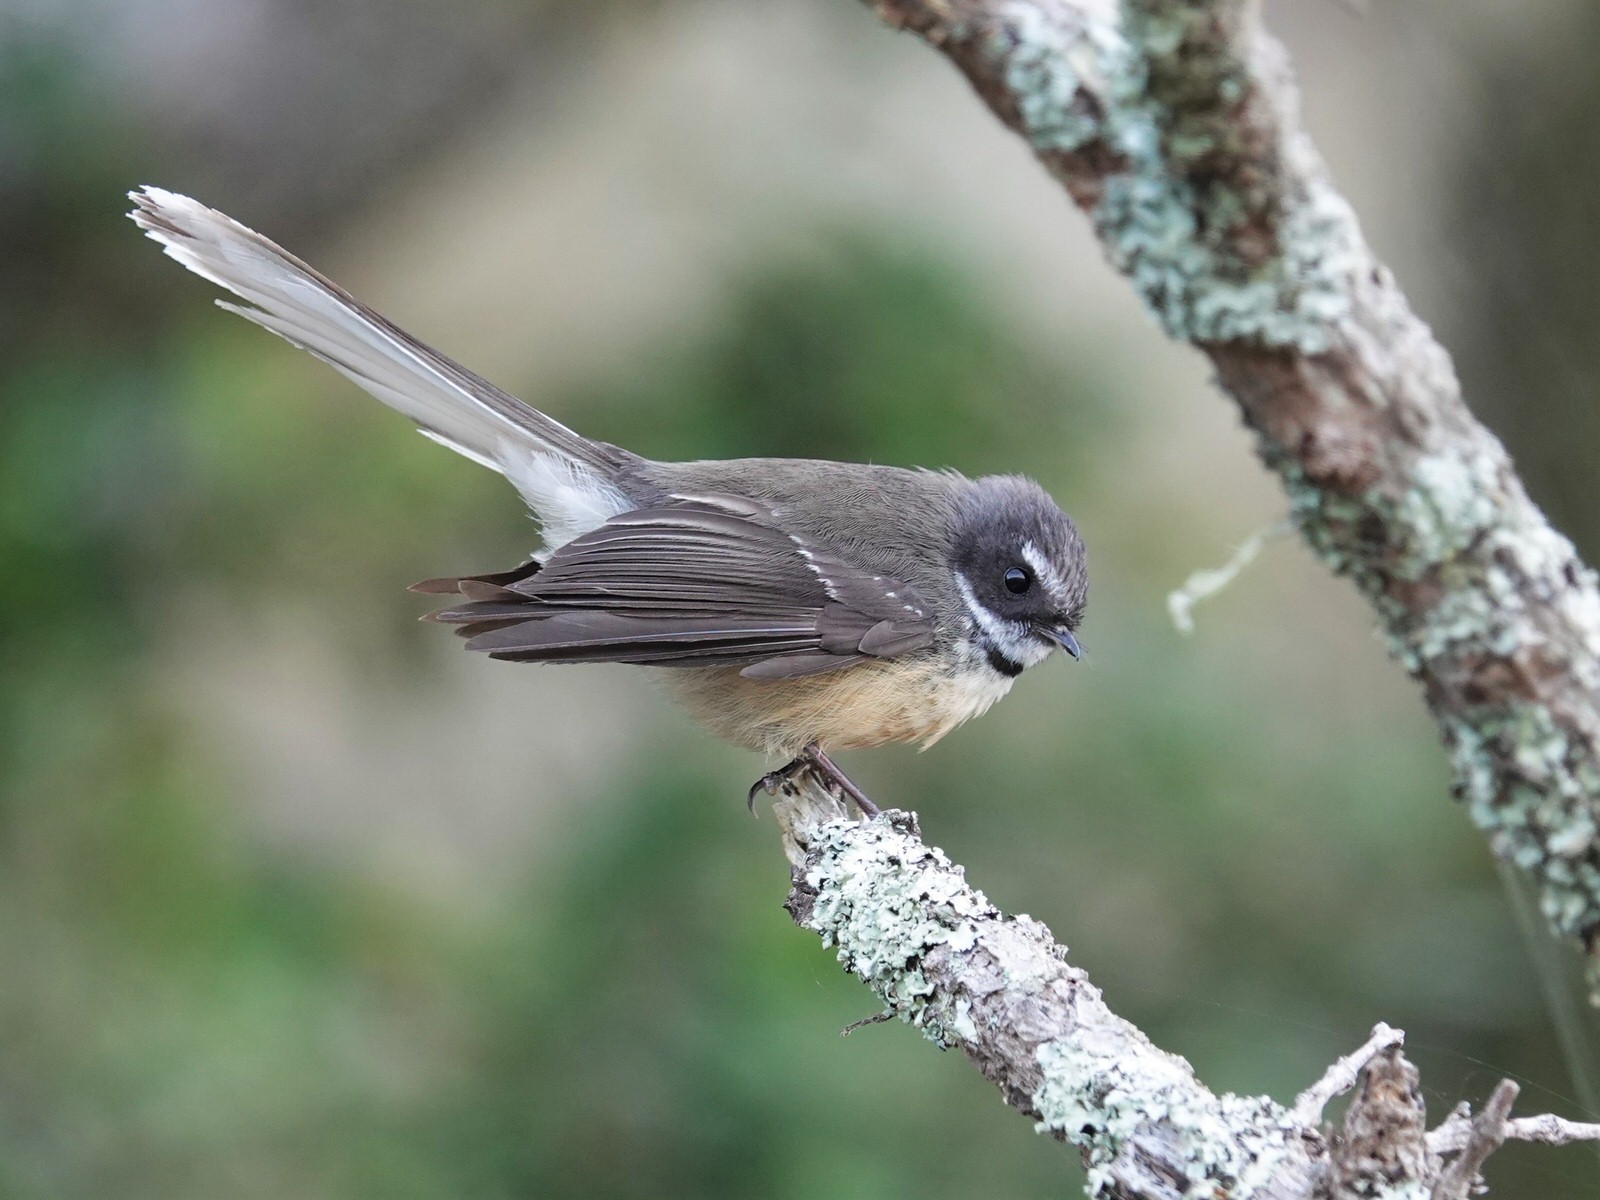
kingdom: Animalia
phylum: Chordata
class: Aves
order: Passeriformes
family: Rhipiduridae
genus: Rhipidura
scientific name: Rhipidura fuliginosa
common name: New zealand fantail
